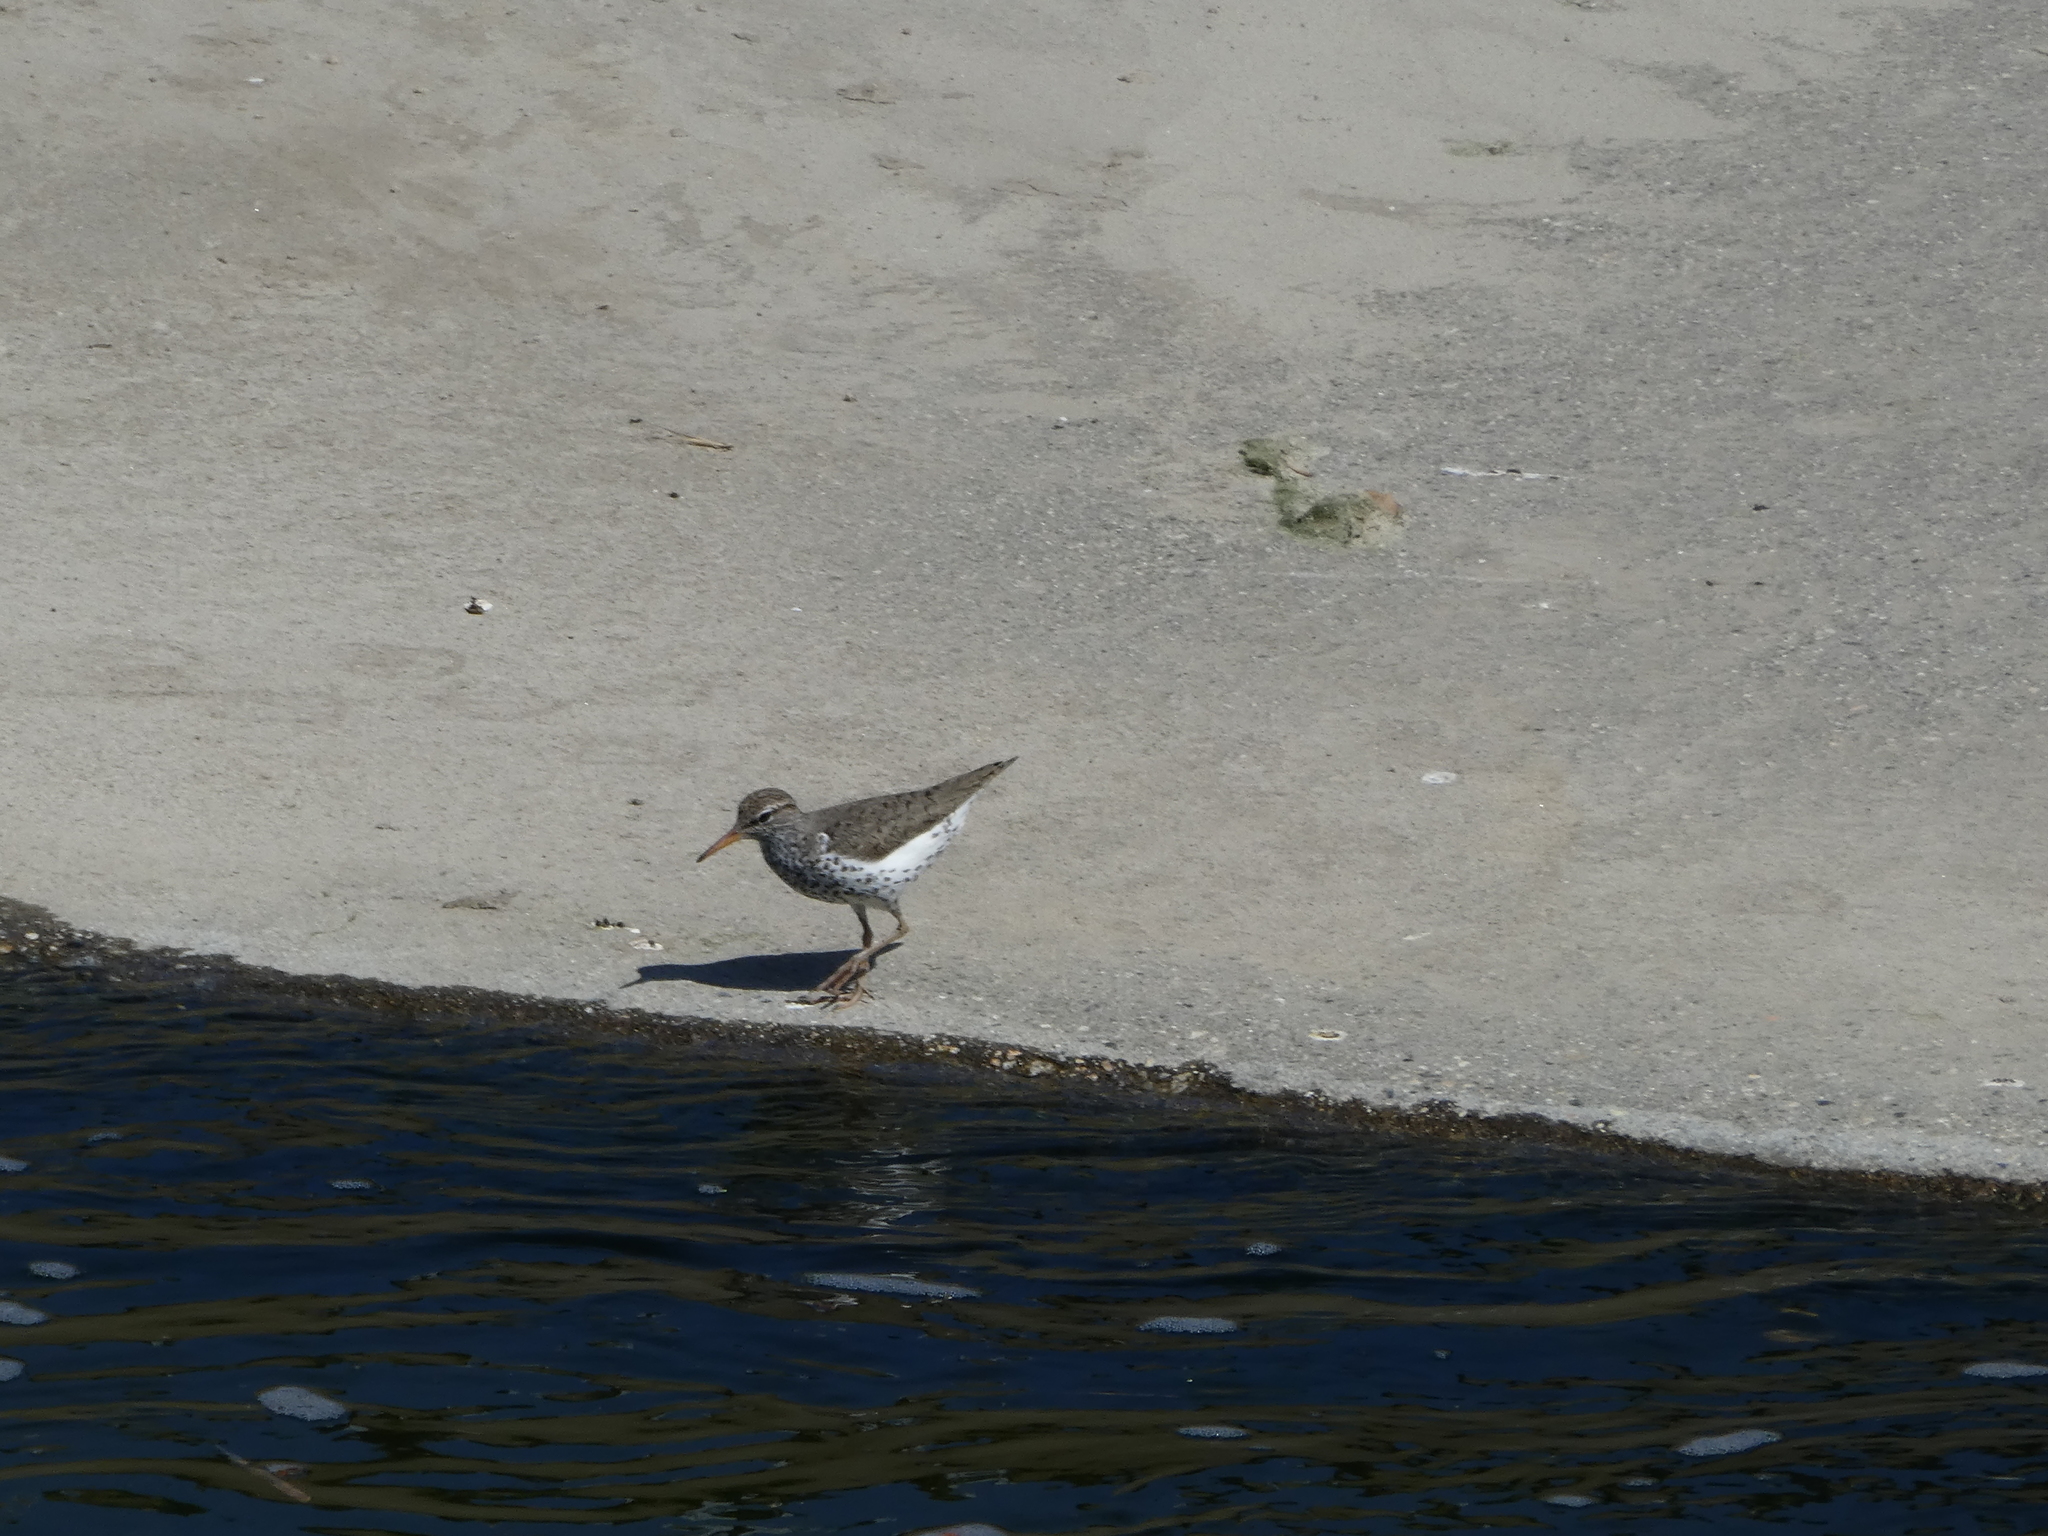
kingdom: Animalia
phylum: Chordata
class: Aves
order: Charadriiformes
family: Scolopacidae
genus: Actitis
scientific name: Actitis macularius
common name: Spotted sandpiper
